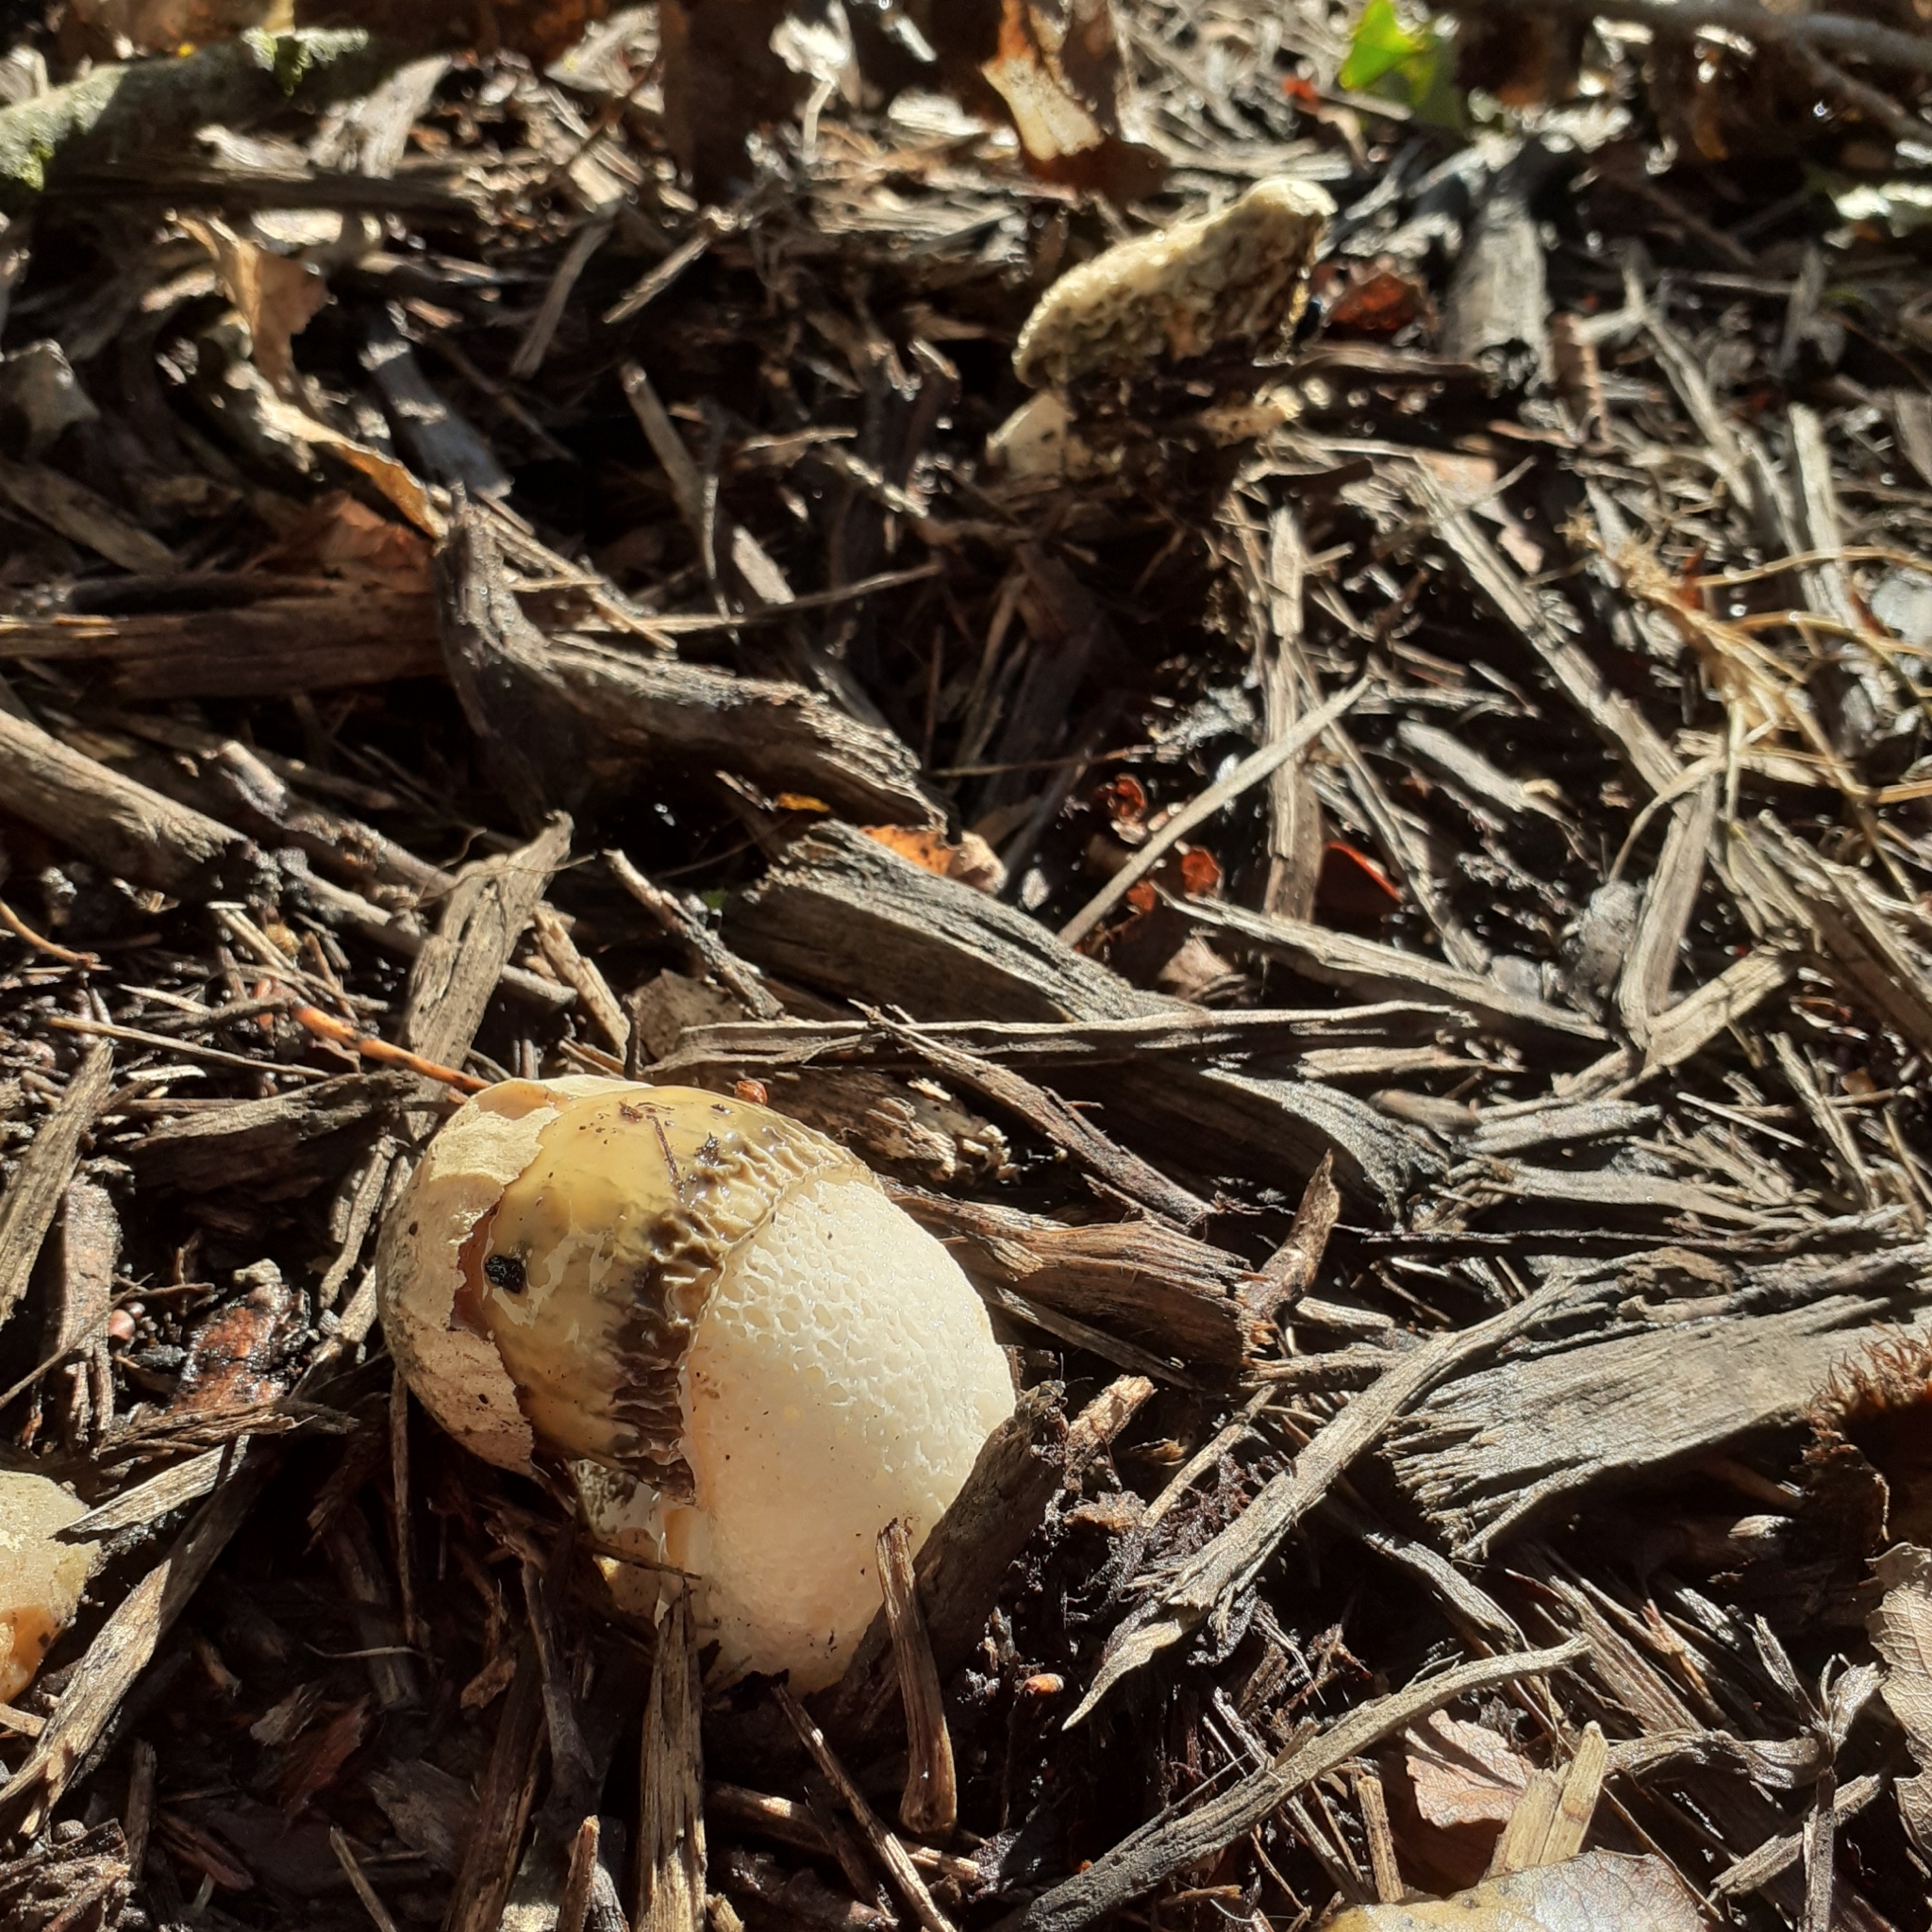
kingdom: Fungi
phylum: Basidiomycota
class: Agaricomycetes
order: Phallales
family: Phallaceae
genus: Phallus
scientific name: Phallus impudicus
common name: Common stinkhorn
